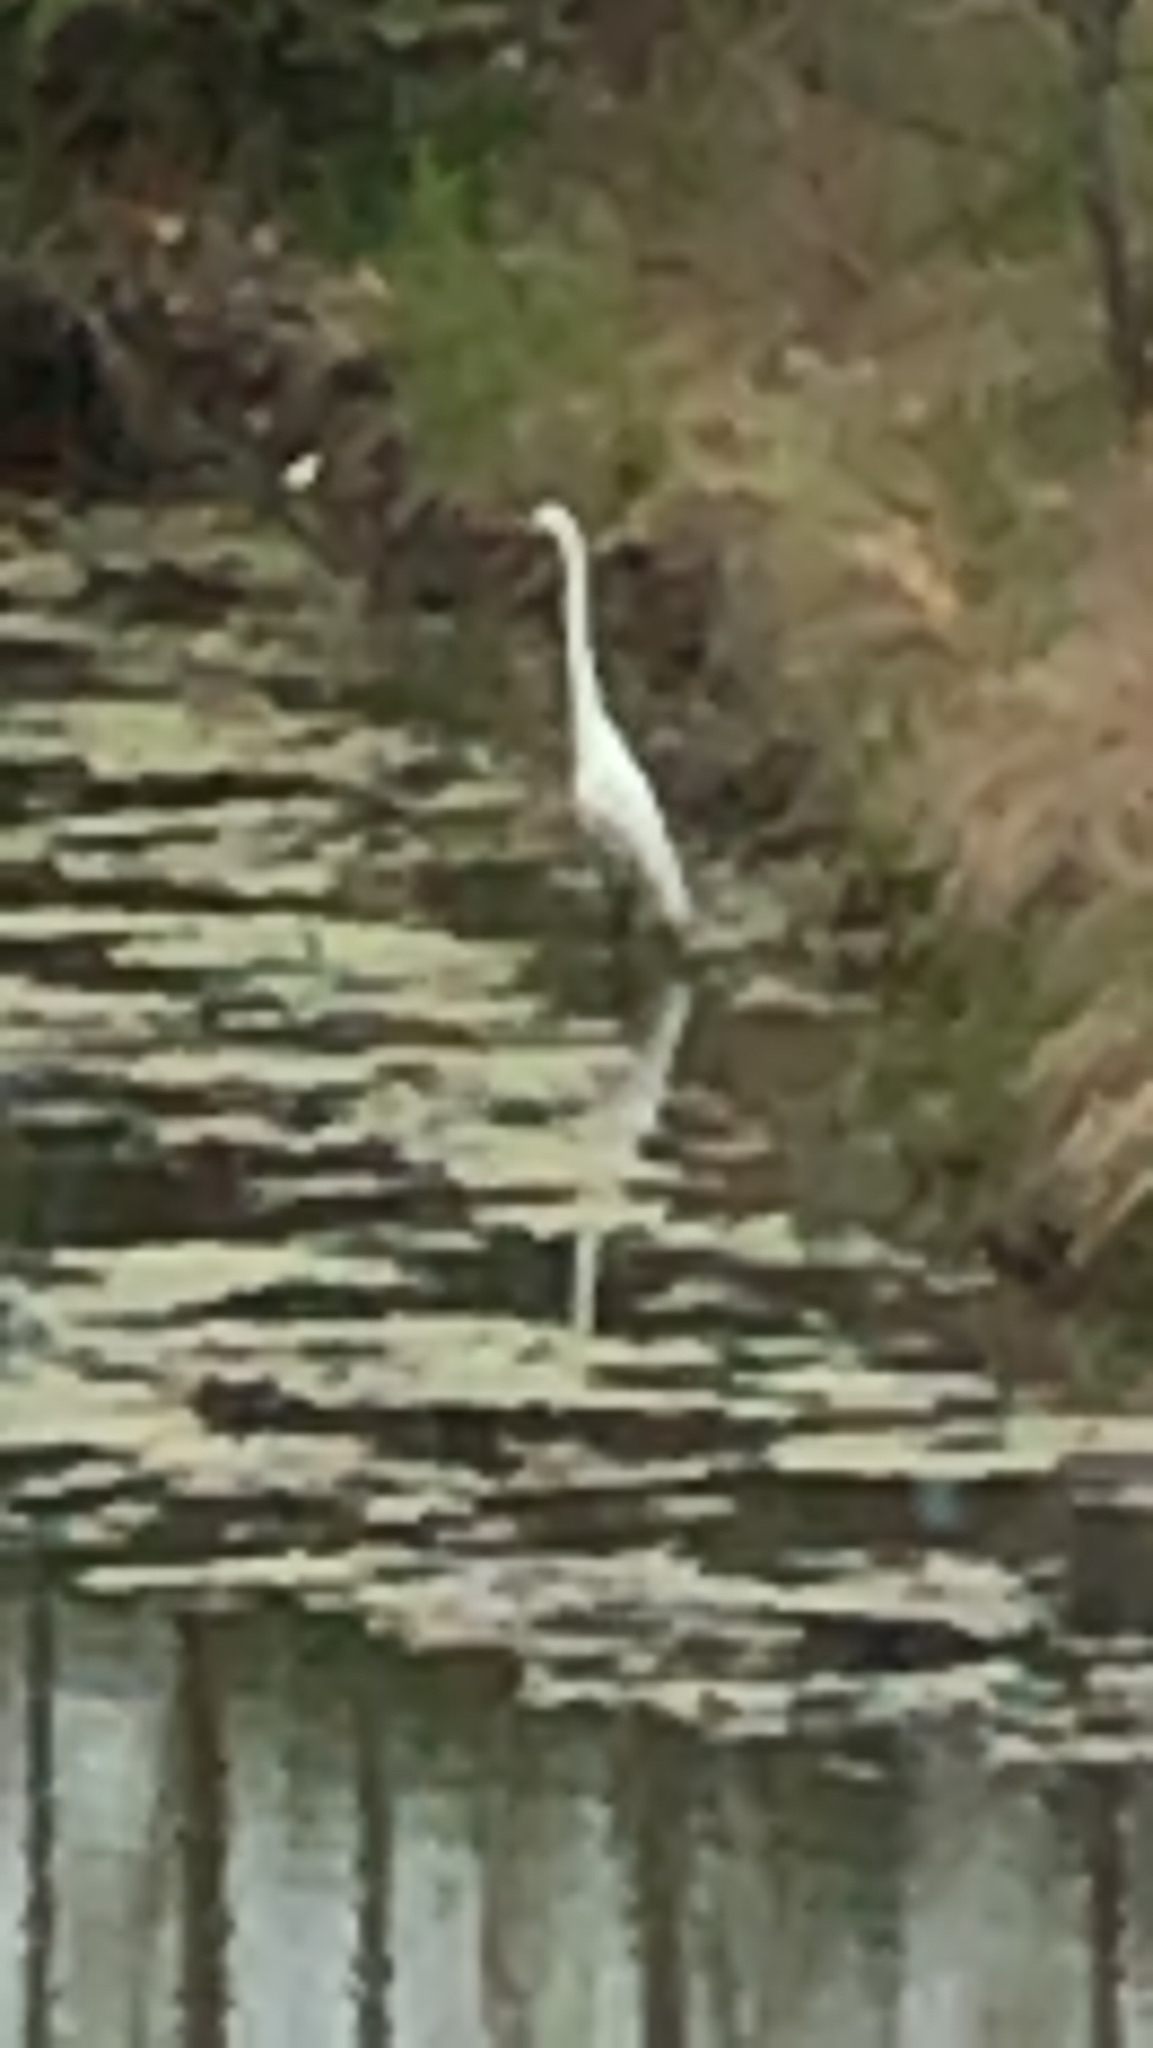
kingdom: Animalia
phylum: Chordata
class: Aves
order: Pelecaniformes
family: Ardeidae
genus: Ardea
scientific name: Ardea alba
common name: Great egret
